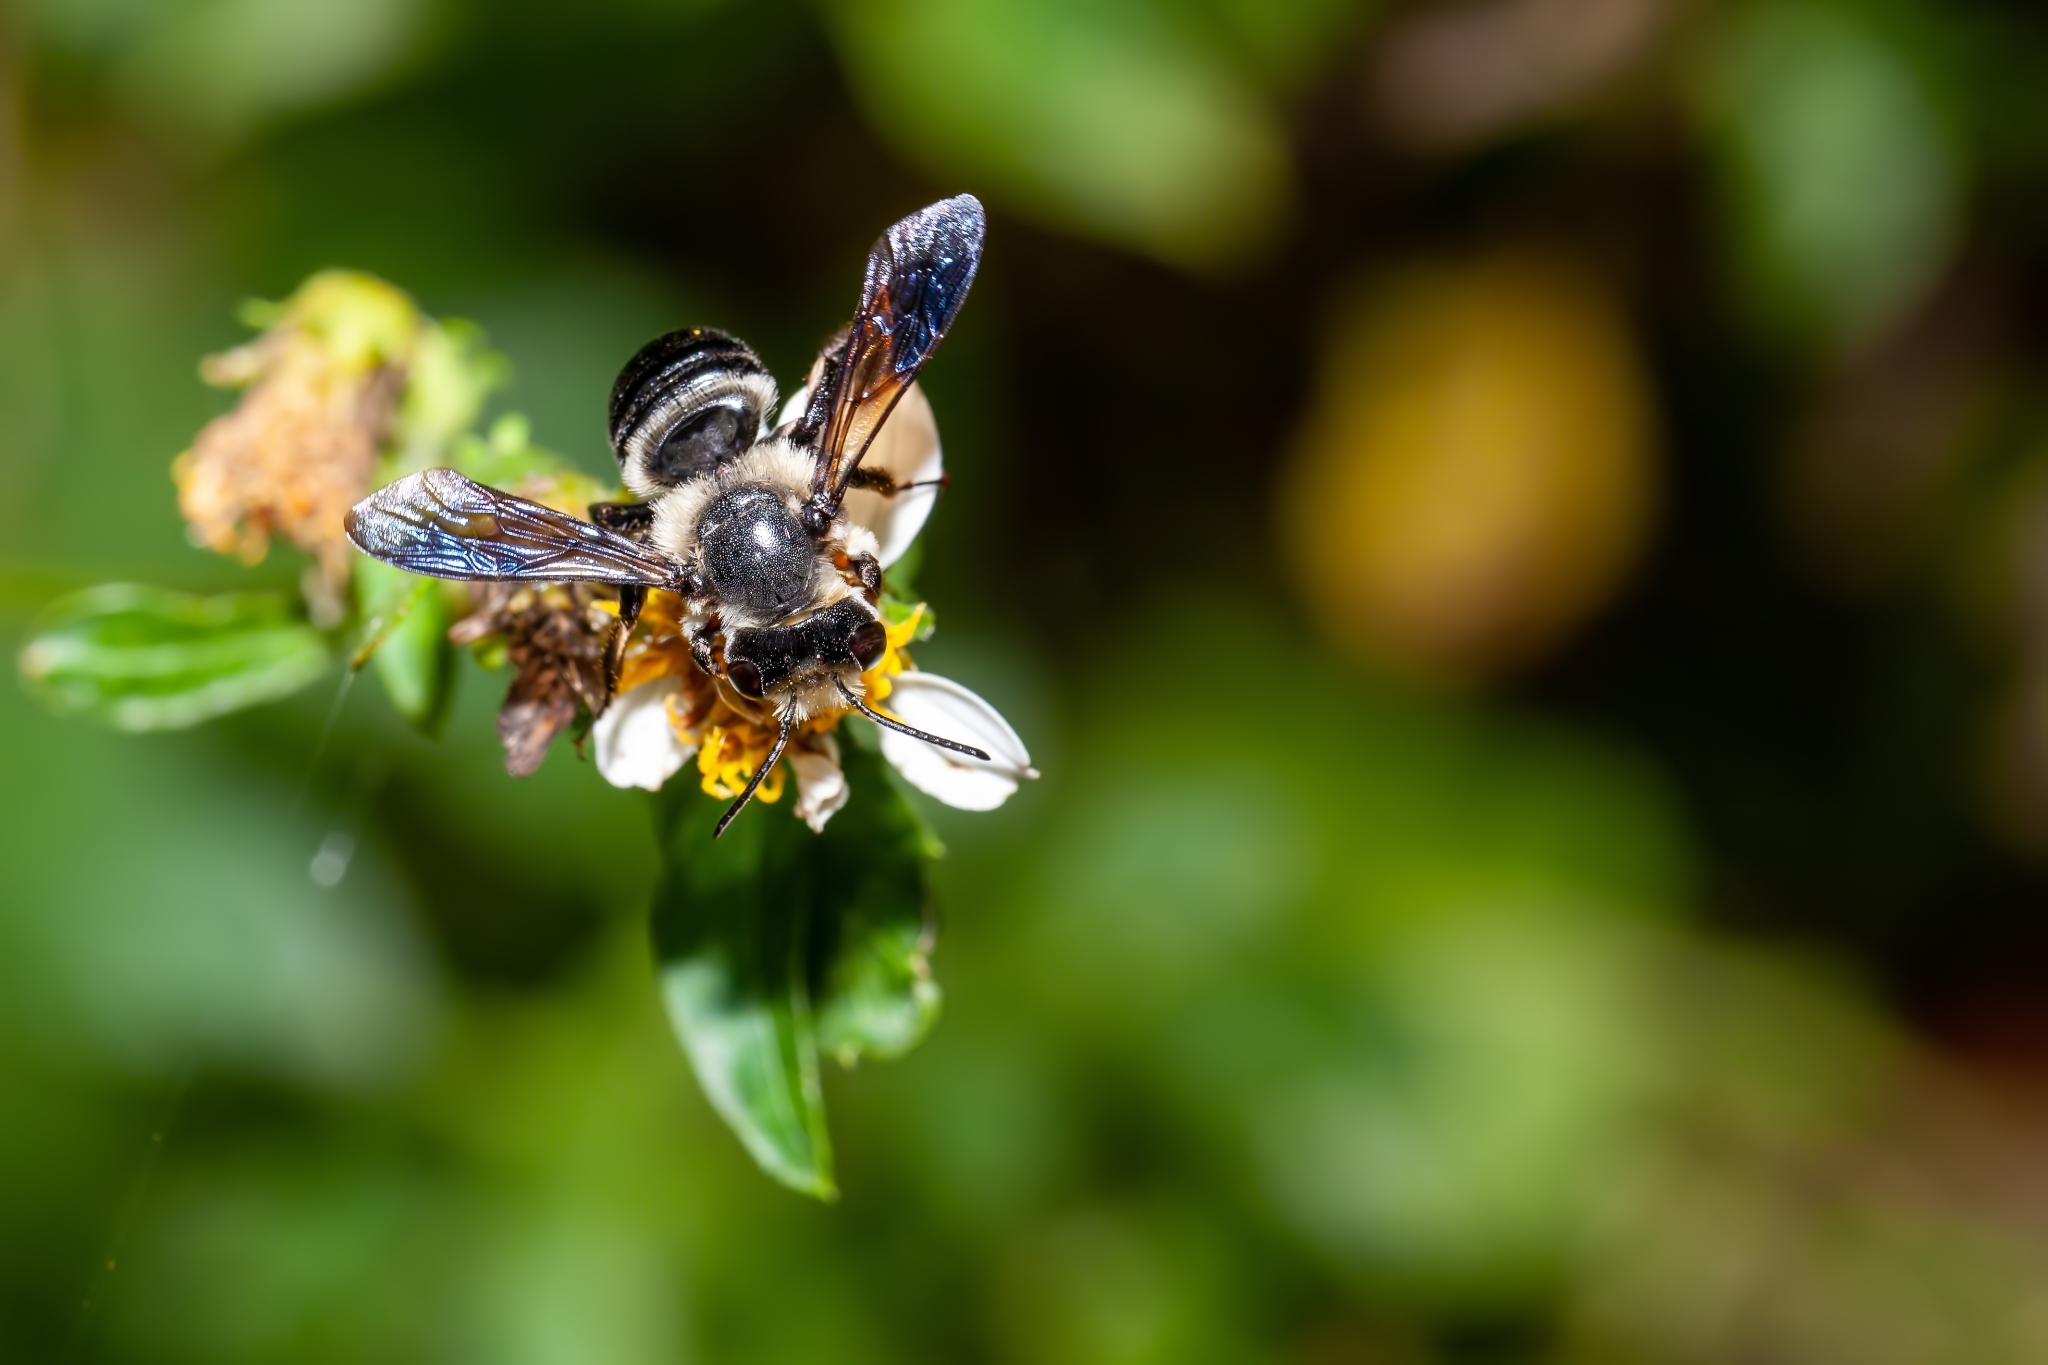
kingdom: Animalia
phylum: Arthropoda
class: Insecta
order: Hymenoptera
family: Megachilidae
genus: Megachile
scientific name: Megachile xylocopoides
